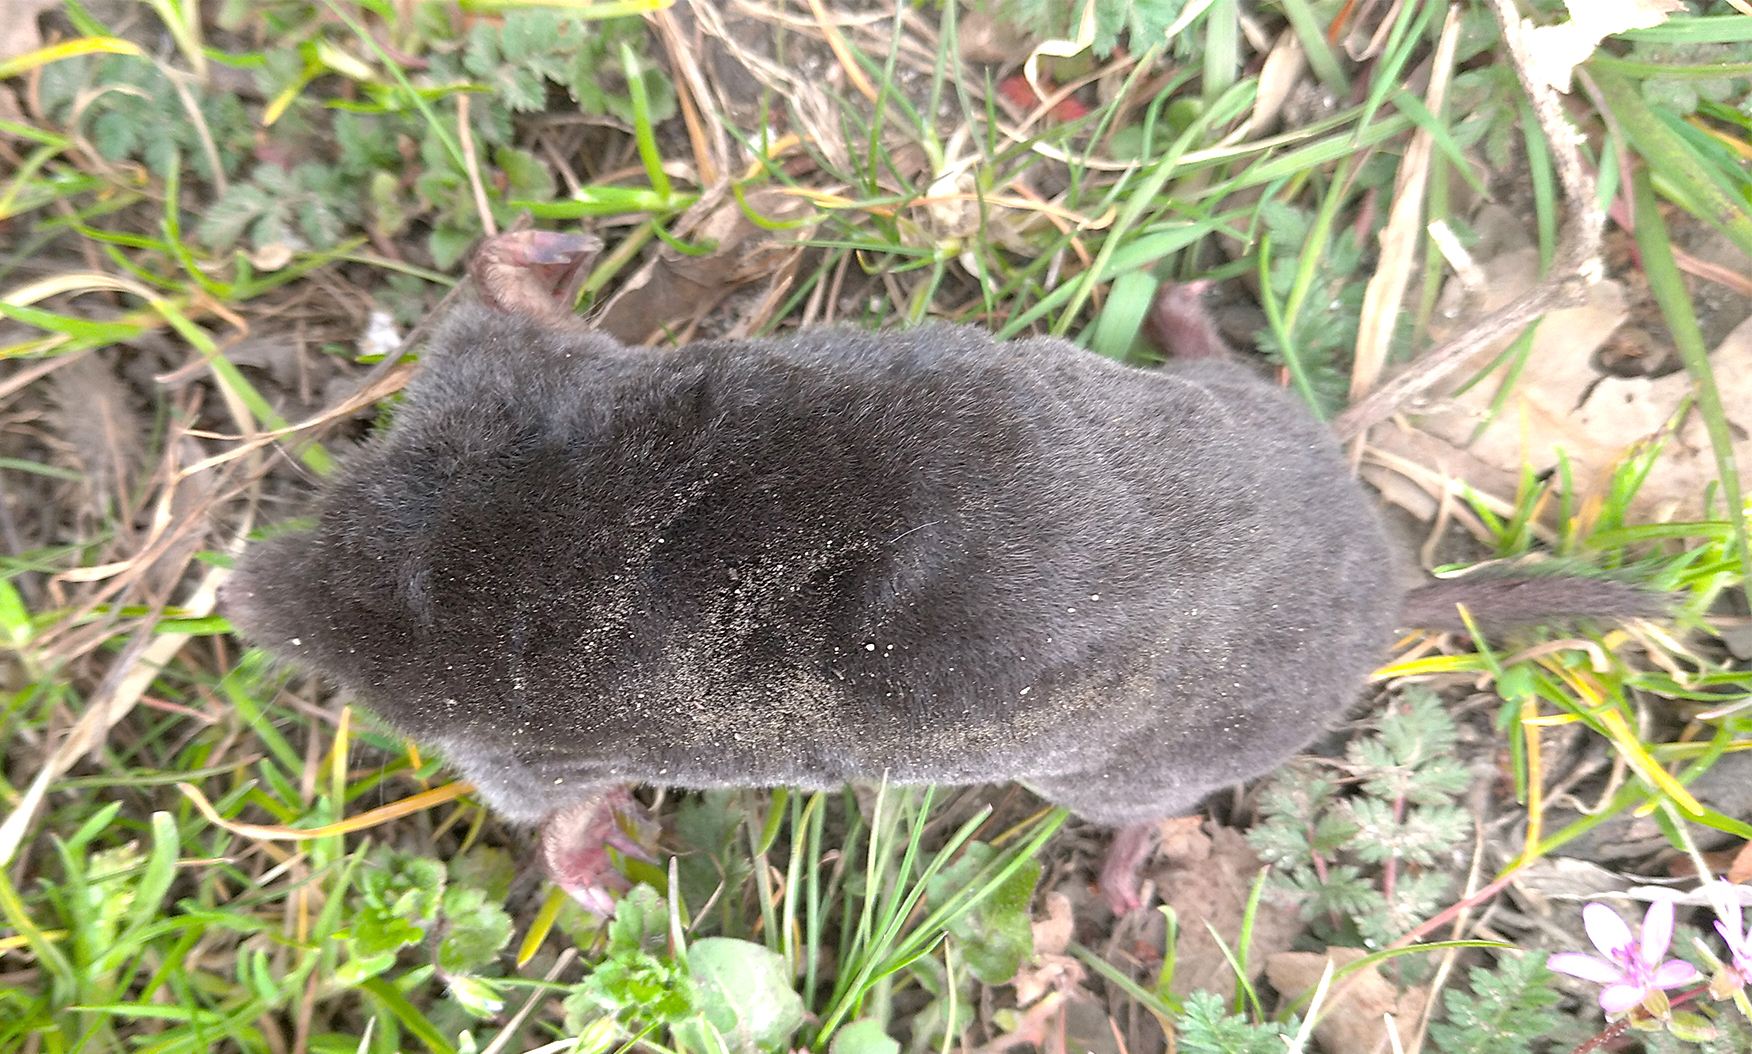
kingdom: Animalia
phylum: Chordata
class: Mammalia
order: Soricomorpha
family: Talpidae
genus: Talpa
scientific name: Talpa europaea
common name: European mole
